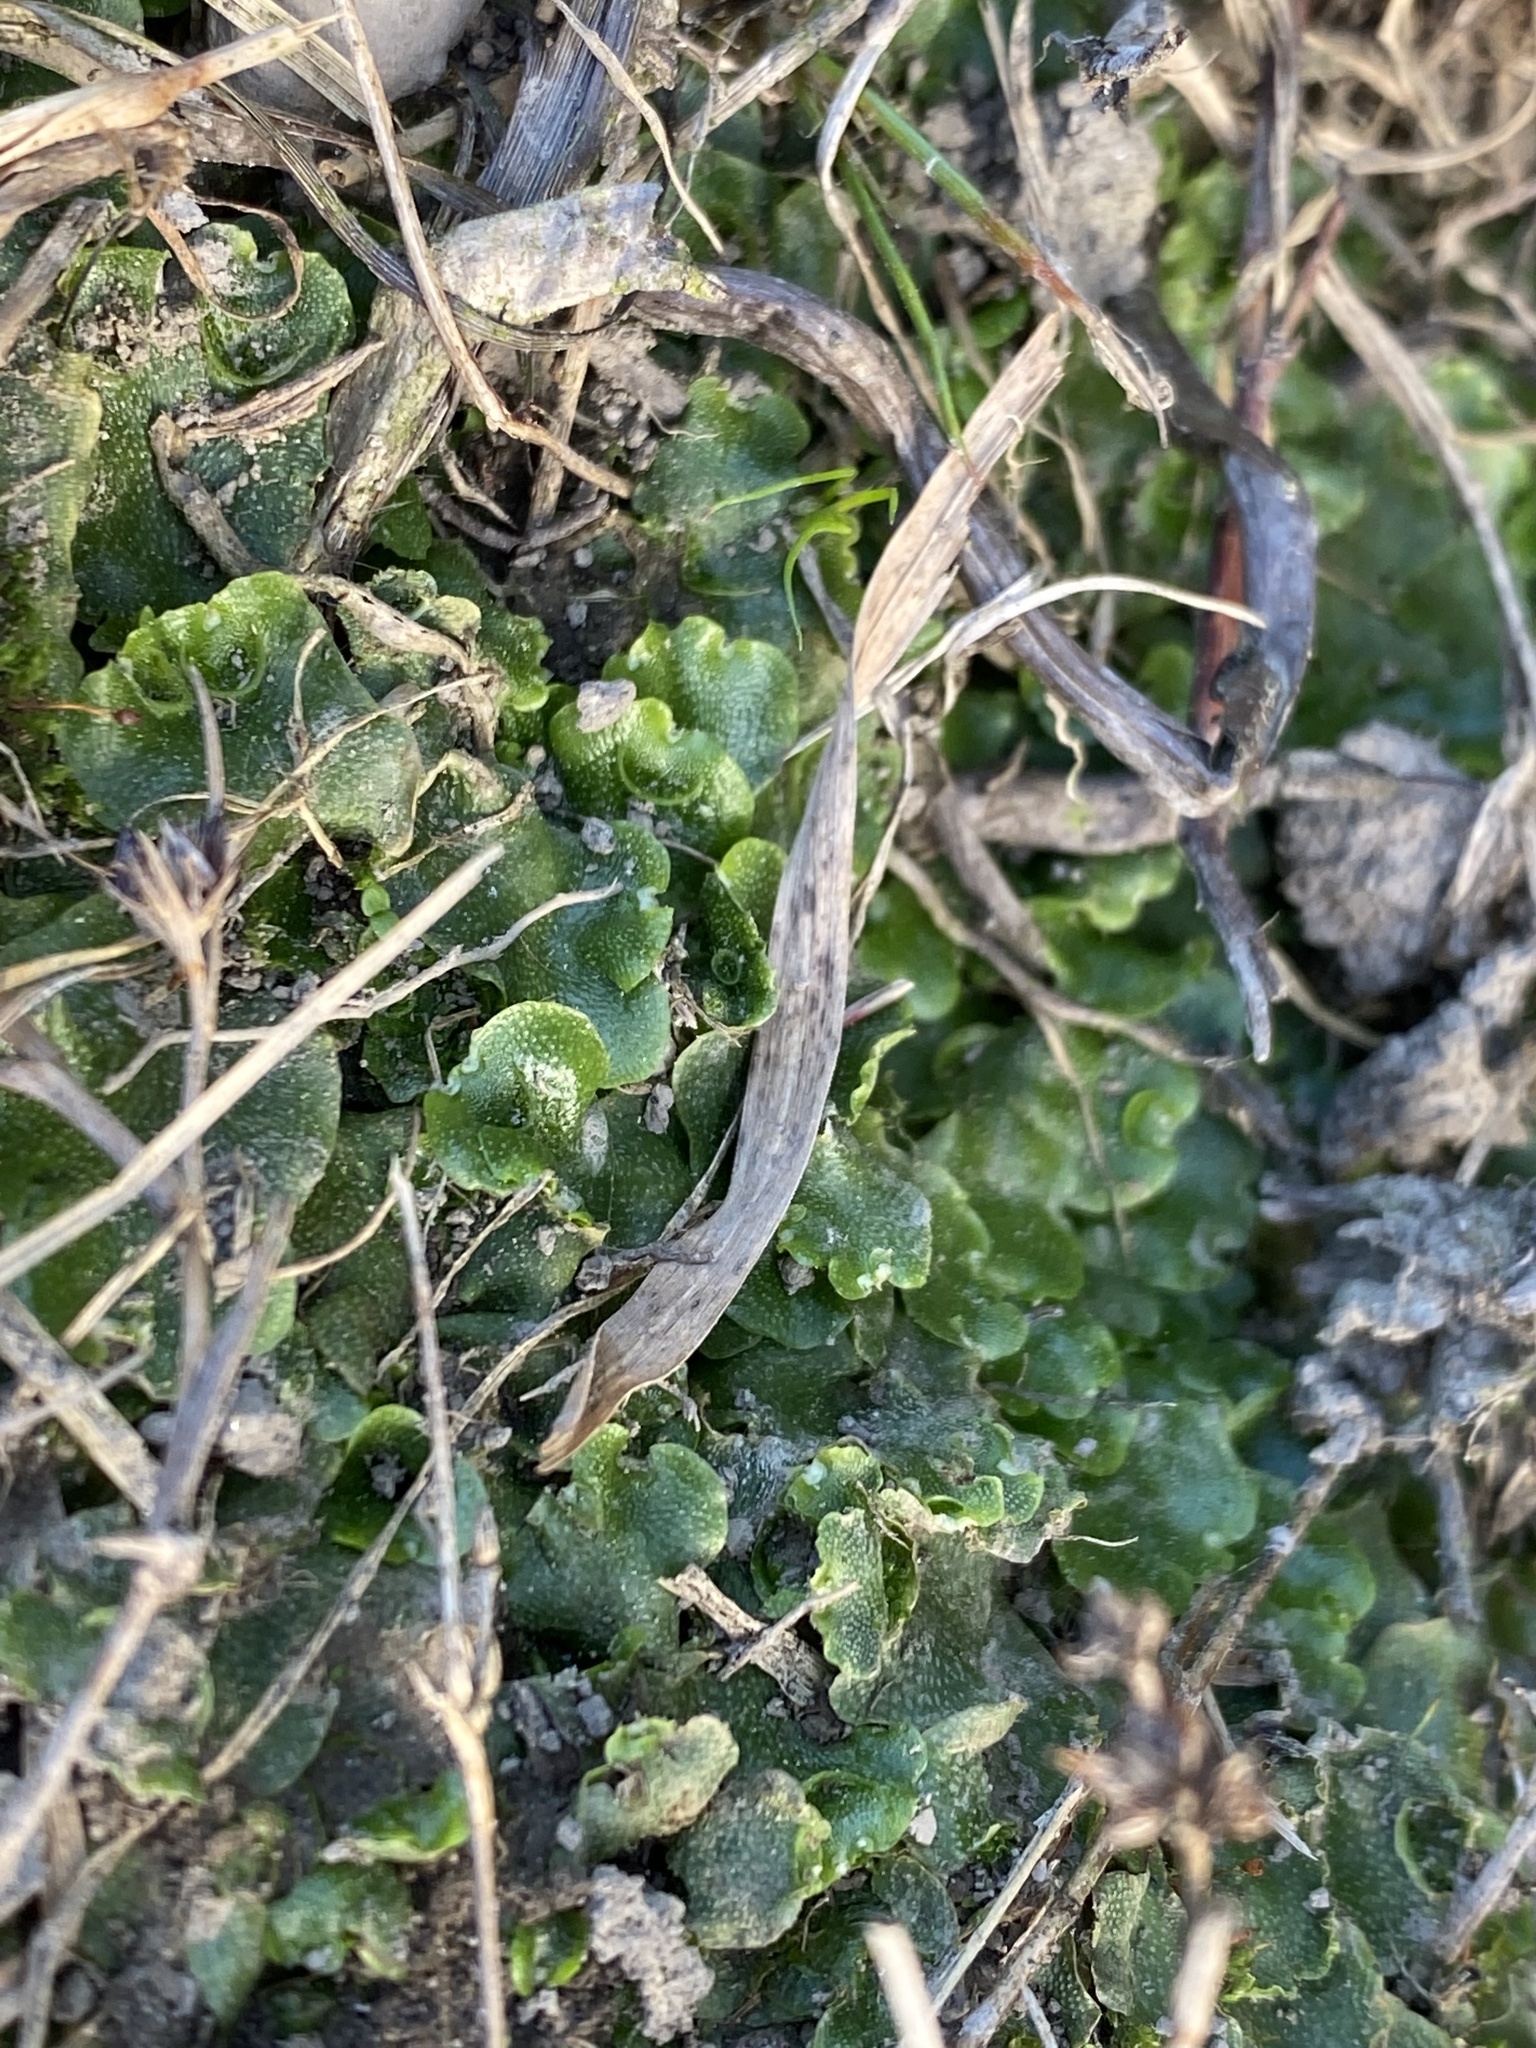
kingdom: Plantae
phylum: Marchantiophyta
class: Marchantiopsida
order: Lunulariales
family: Lunulariaceae
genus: Lunularia
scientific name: Lunularia cruciata
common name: Crescent-cup liverwort
